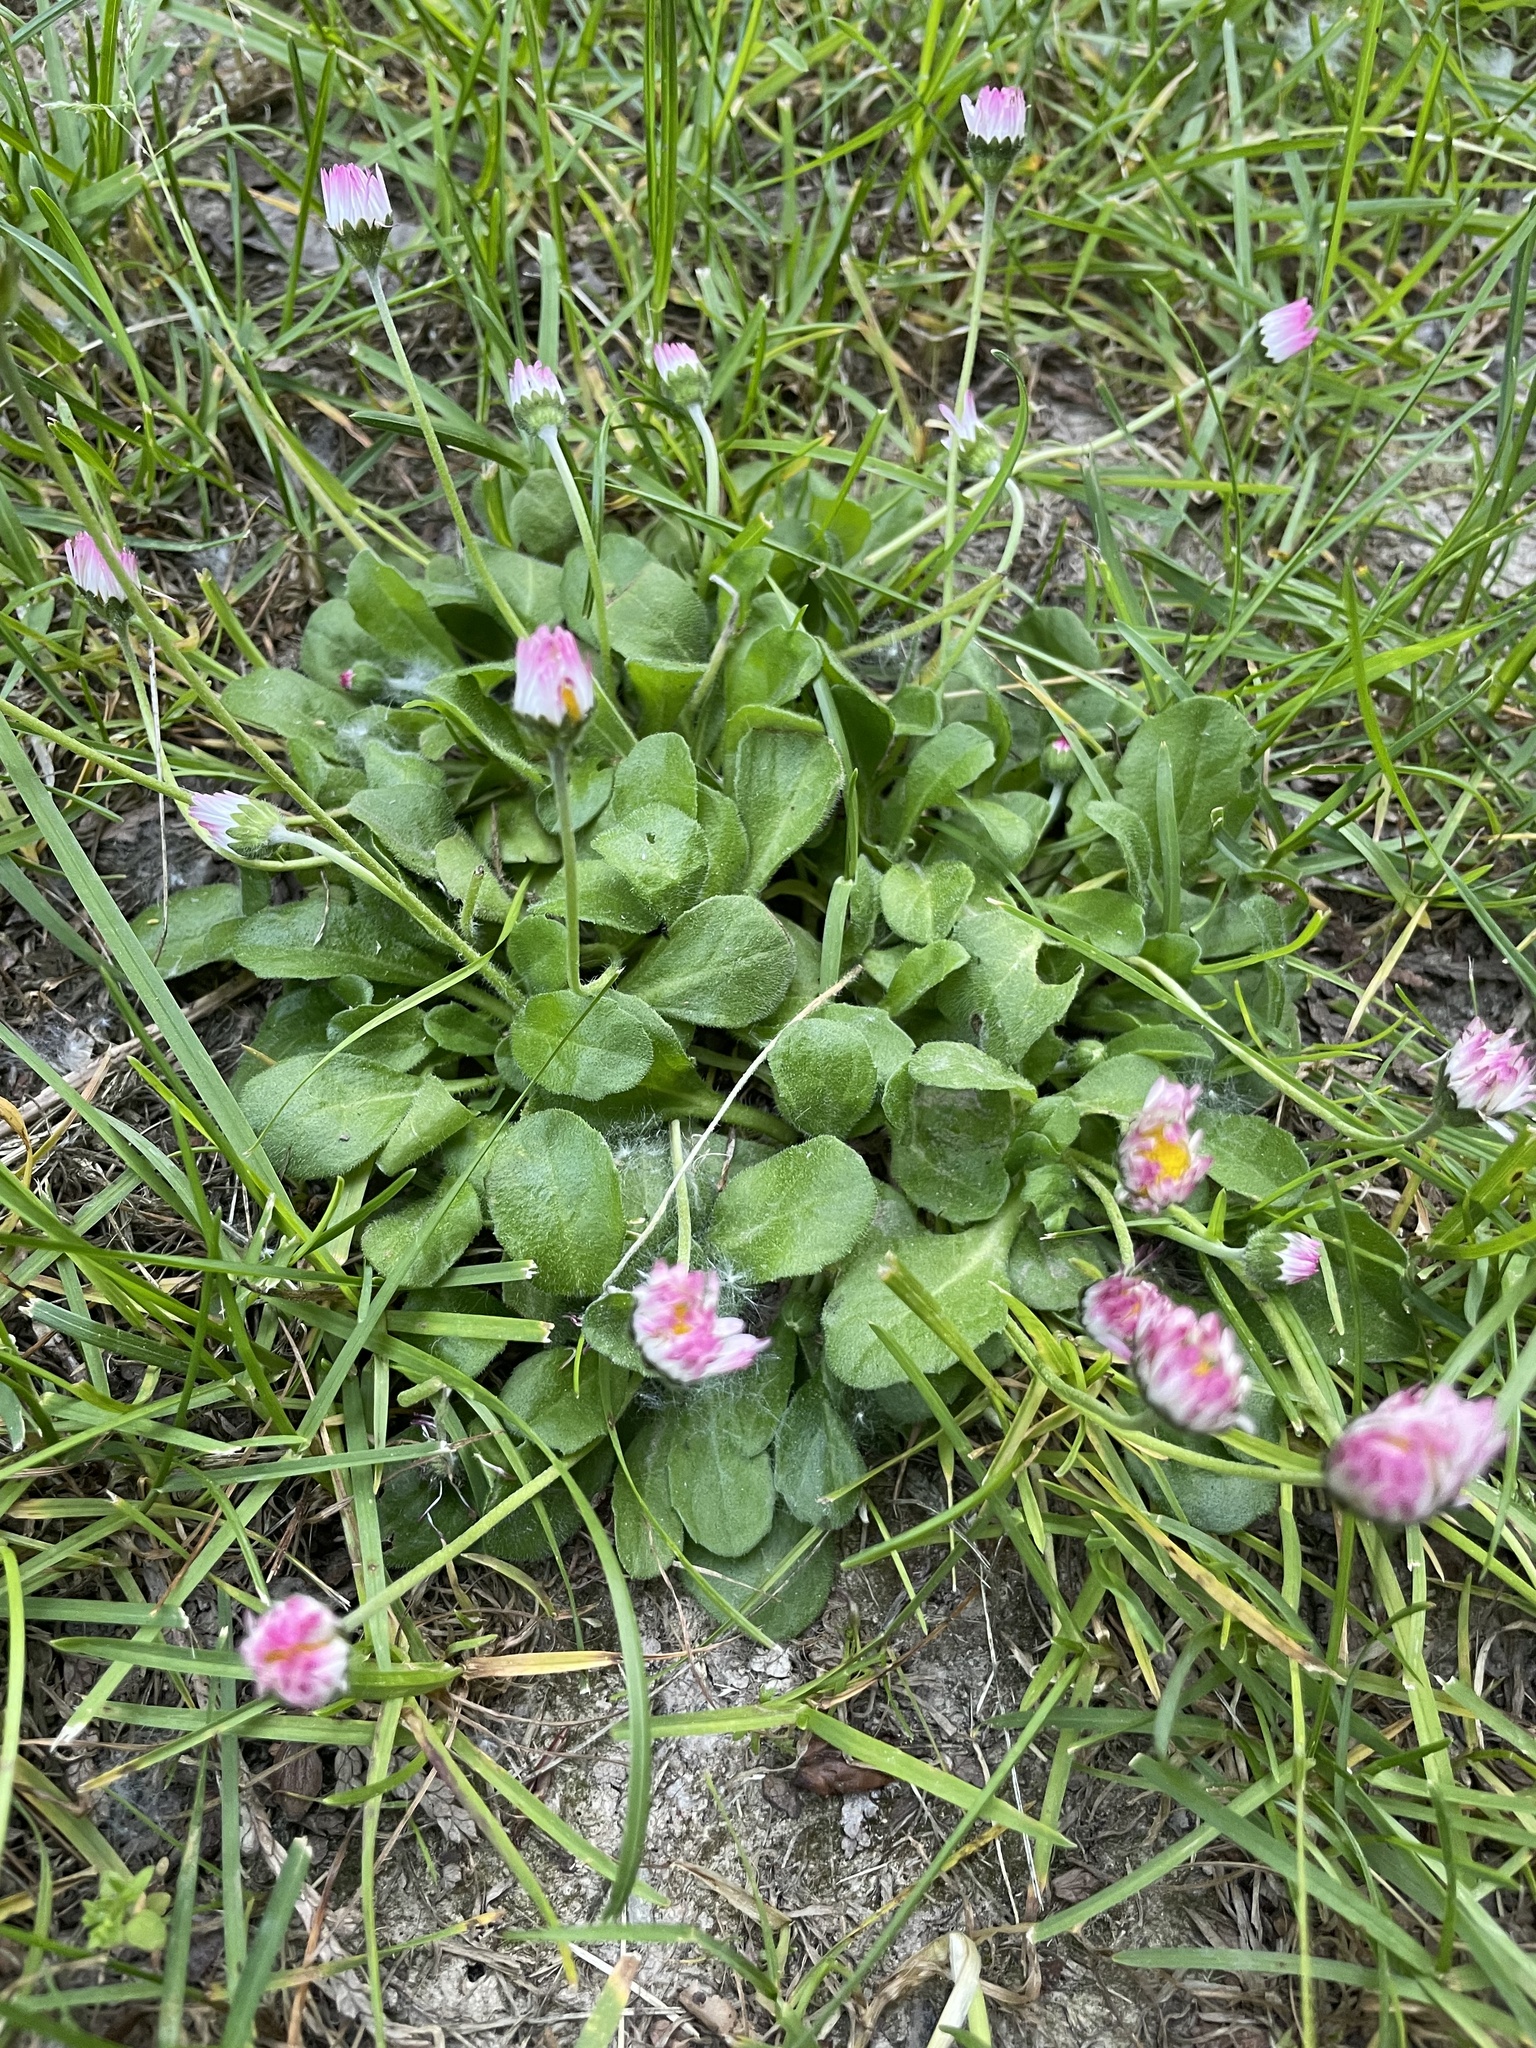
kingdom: Plantae
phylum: Tracheophyta
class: Magnoliopsida
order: Asterales
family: Asteraceae
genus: Bellis
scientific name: Bellis perennis
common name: Lawndaisy
